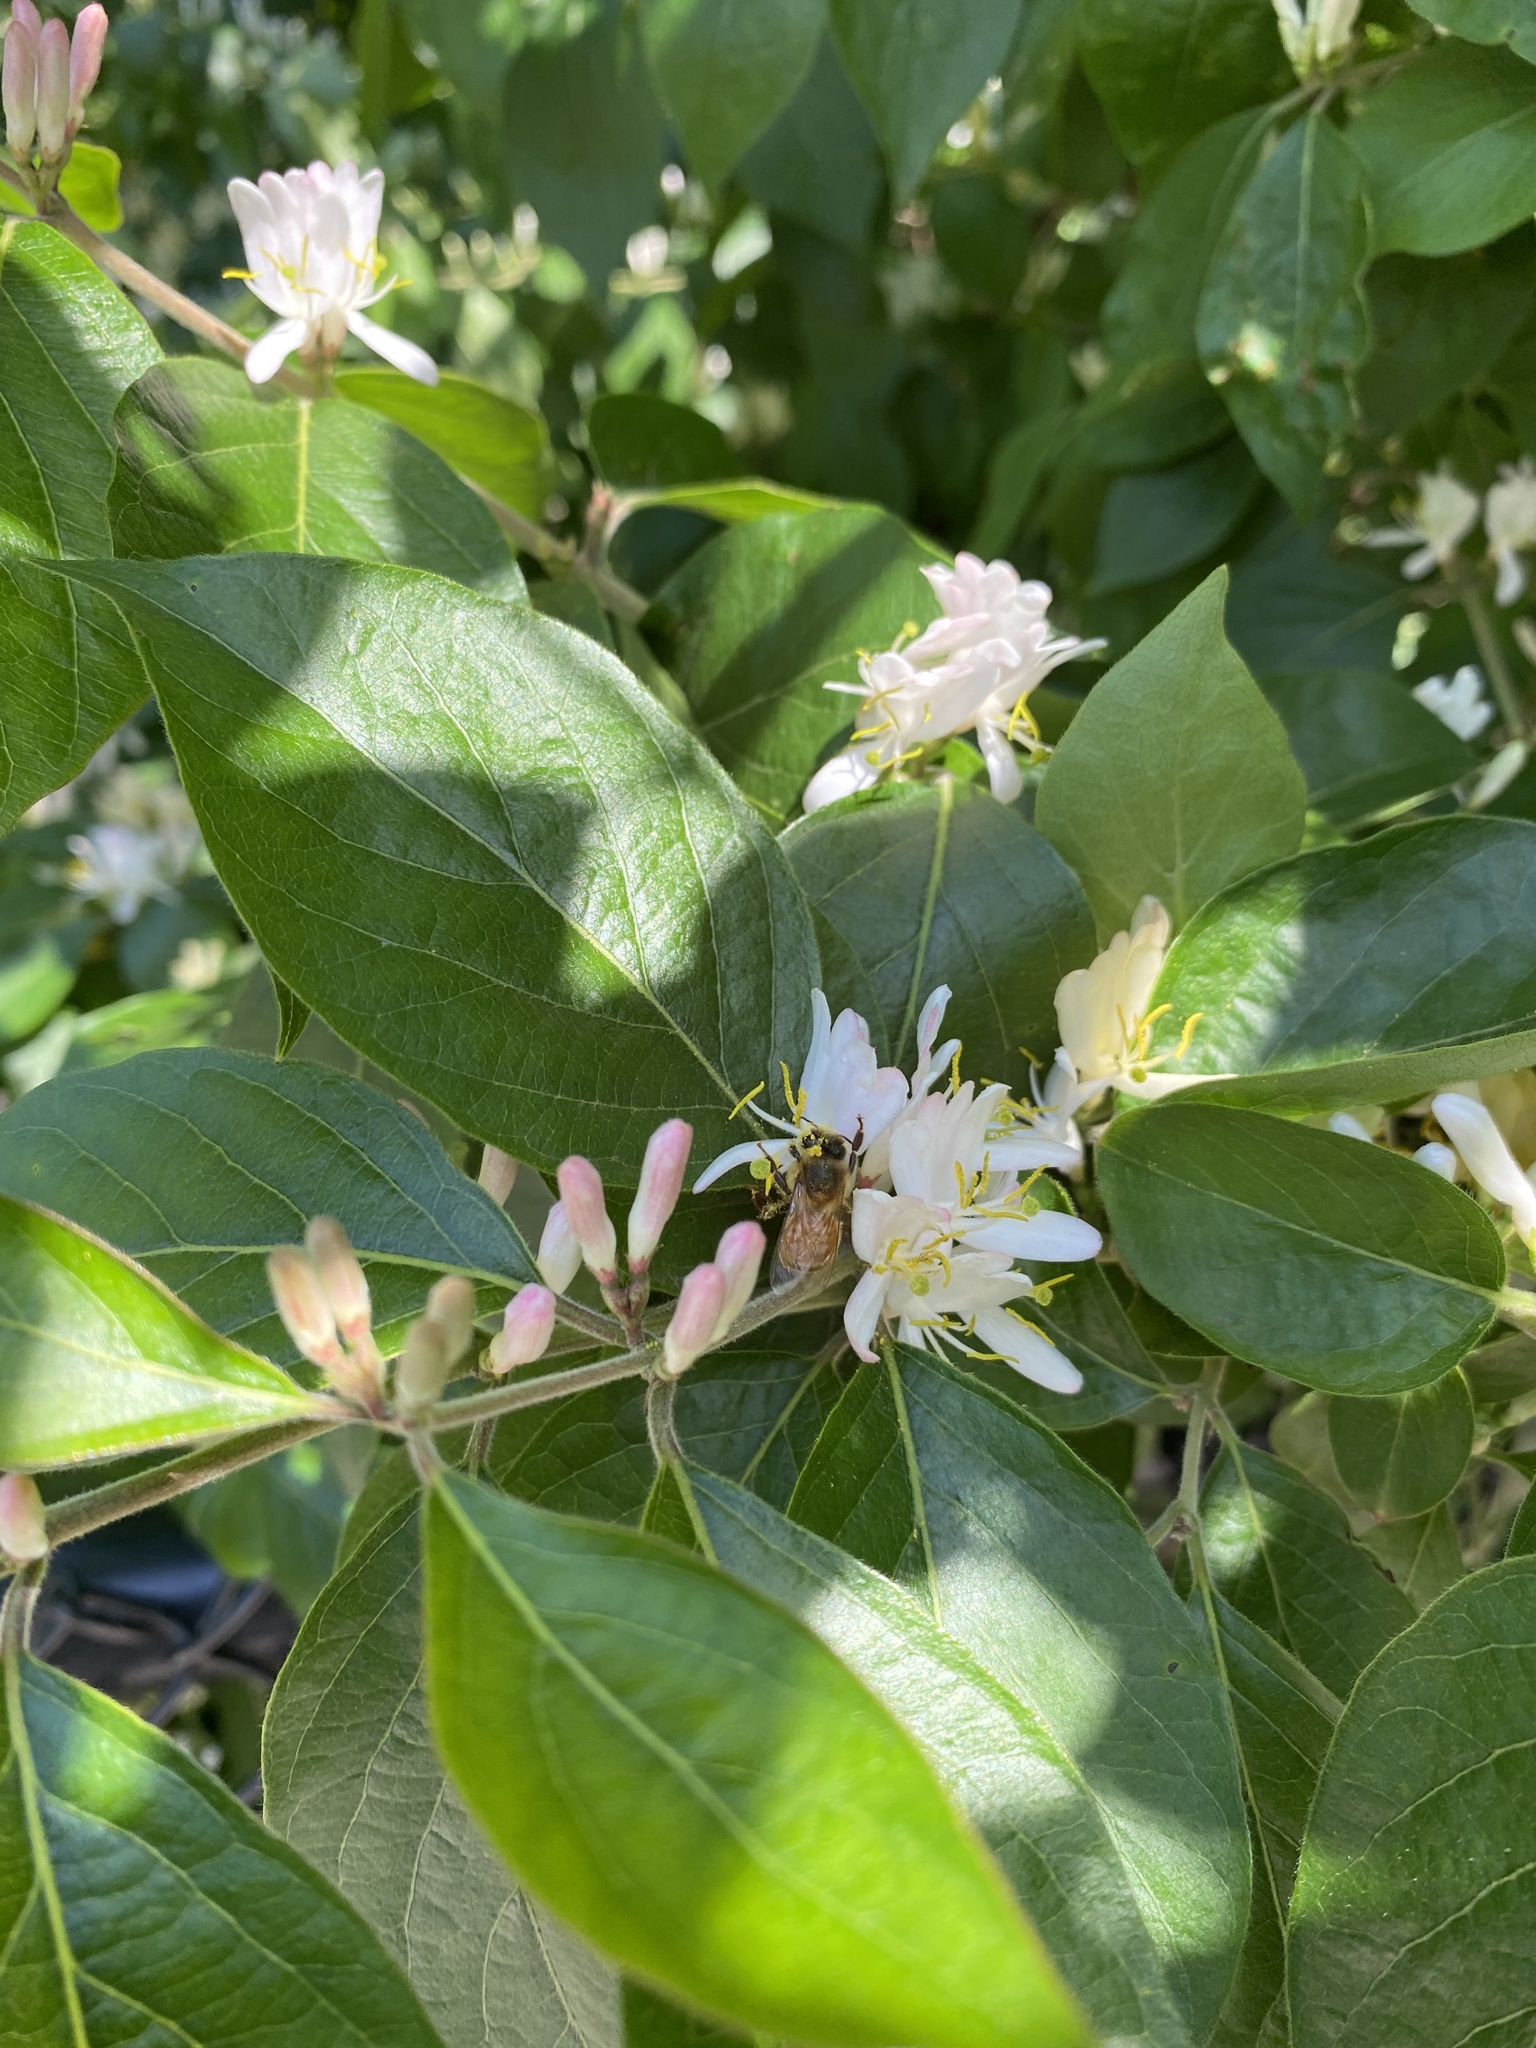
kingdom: Animalia
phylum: Arthropoda
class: Insecta
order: Hymenoptera
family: Apidae
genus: Apis
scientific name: Apis mellifera
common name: Honey bee
